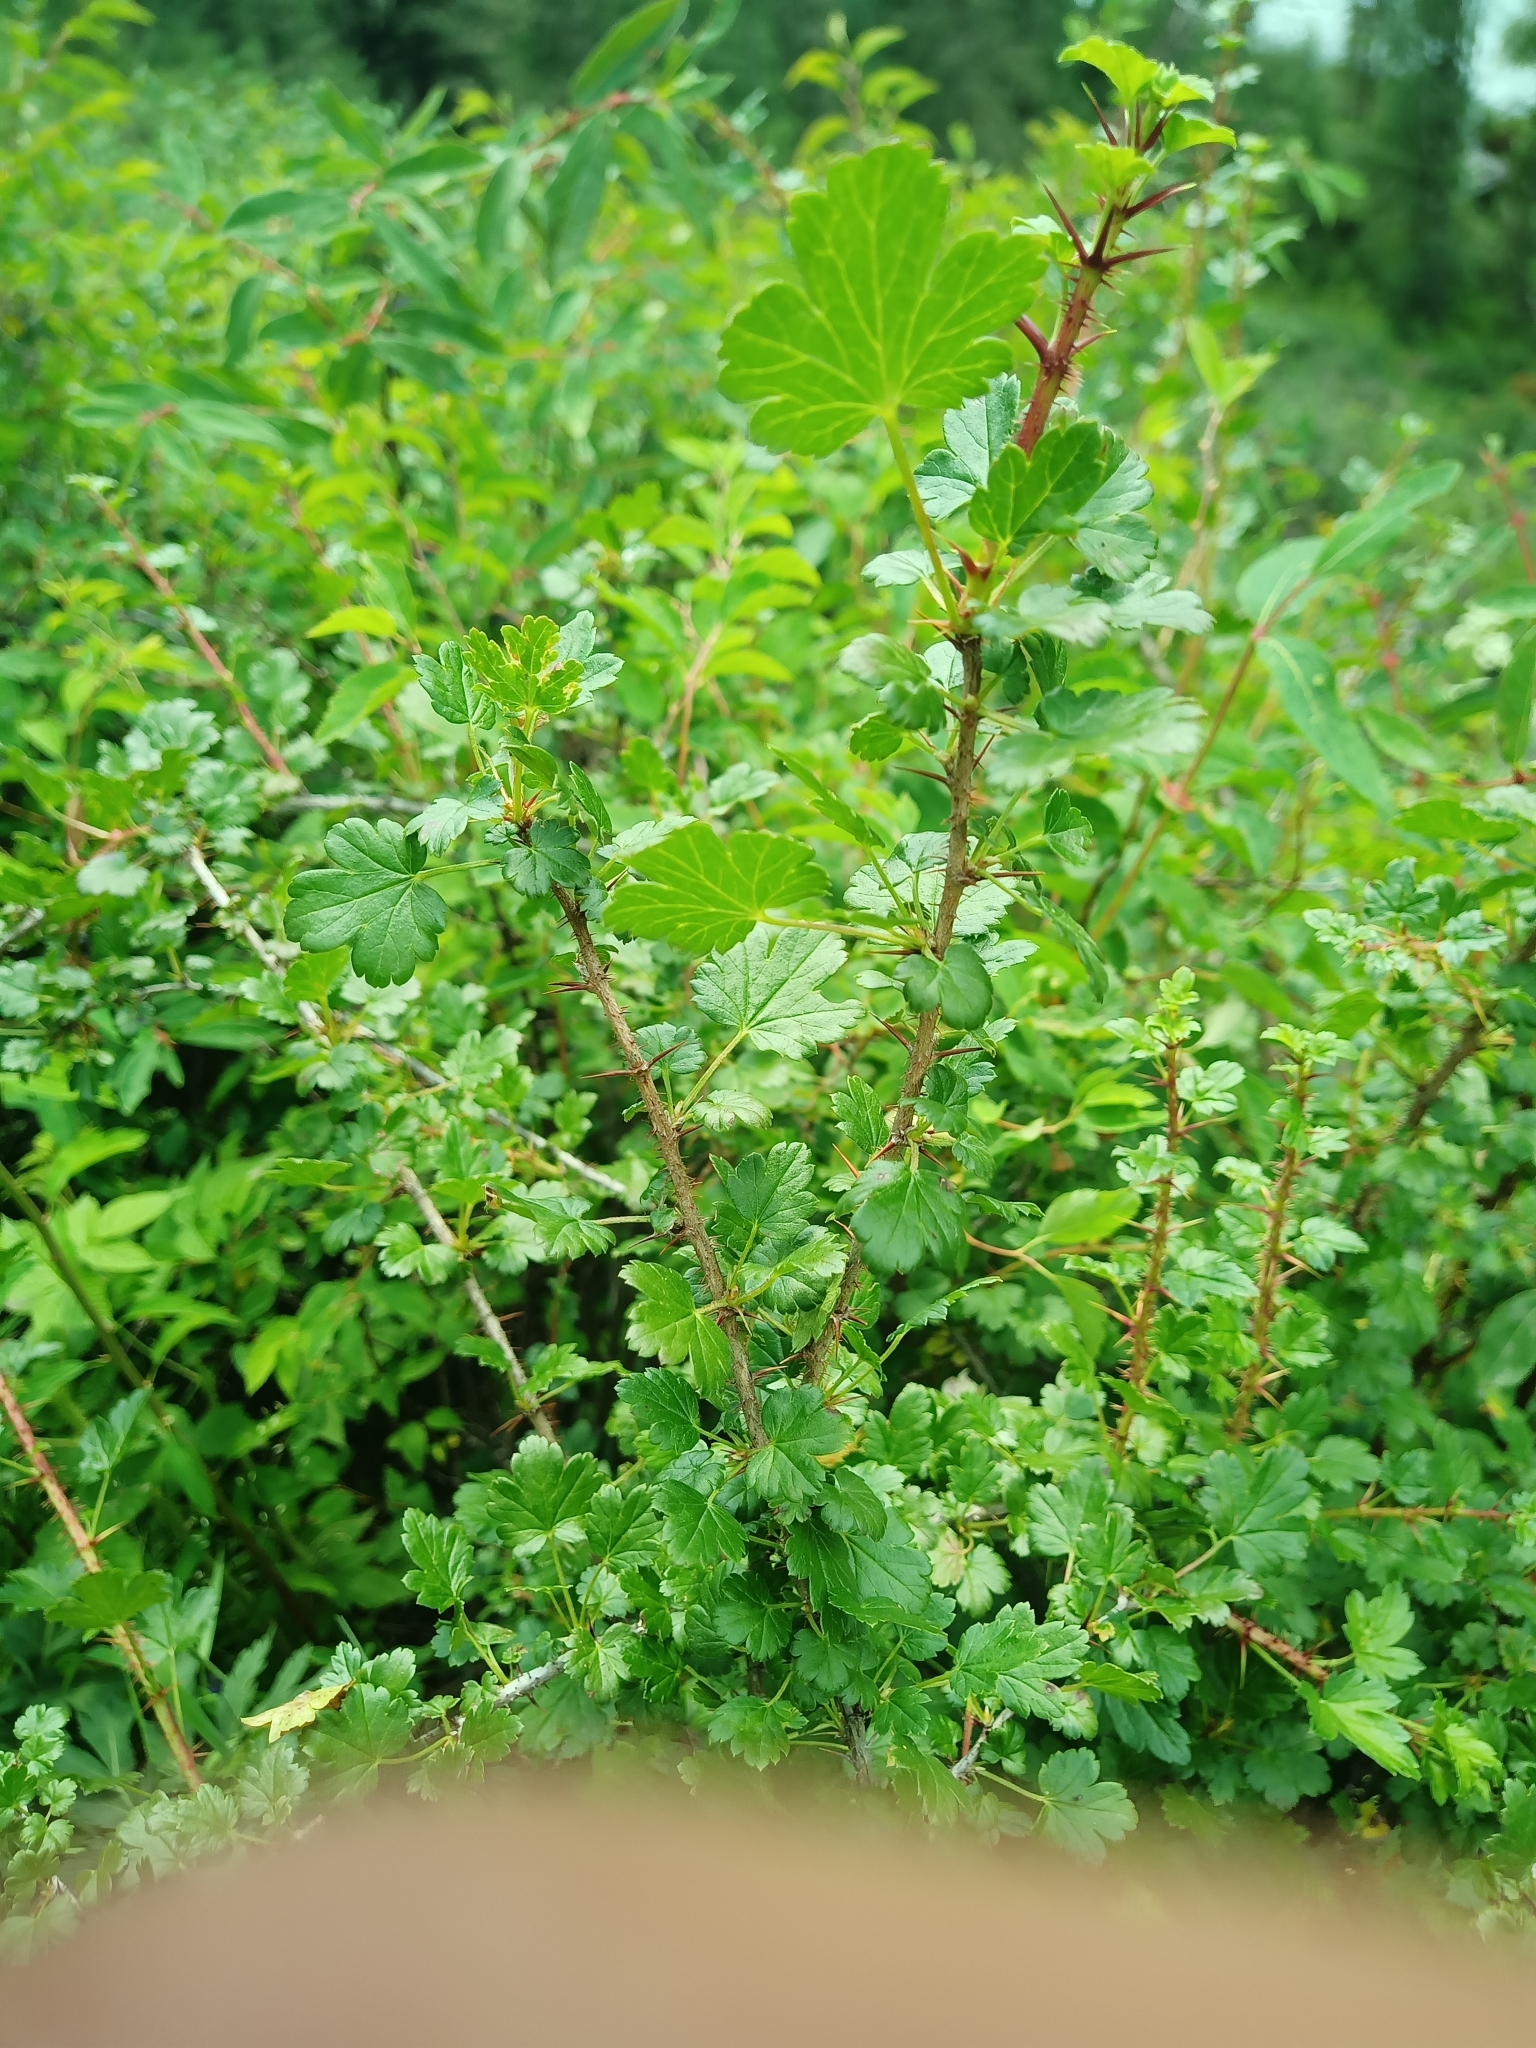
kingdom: Plantae
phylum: Tracheophyta
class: Magnoliopsida
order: Saxifragales
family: Grossulariaceae
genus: Ribes
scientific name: Ribes aciculare
